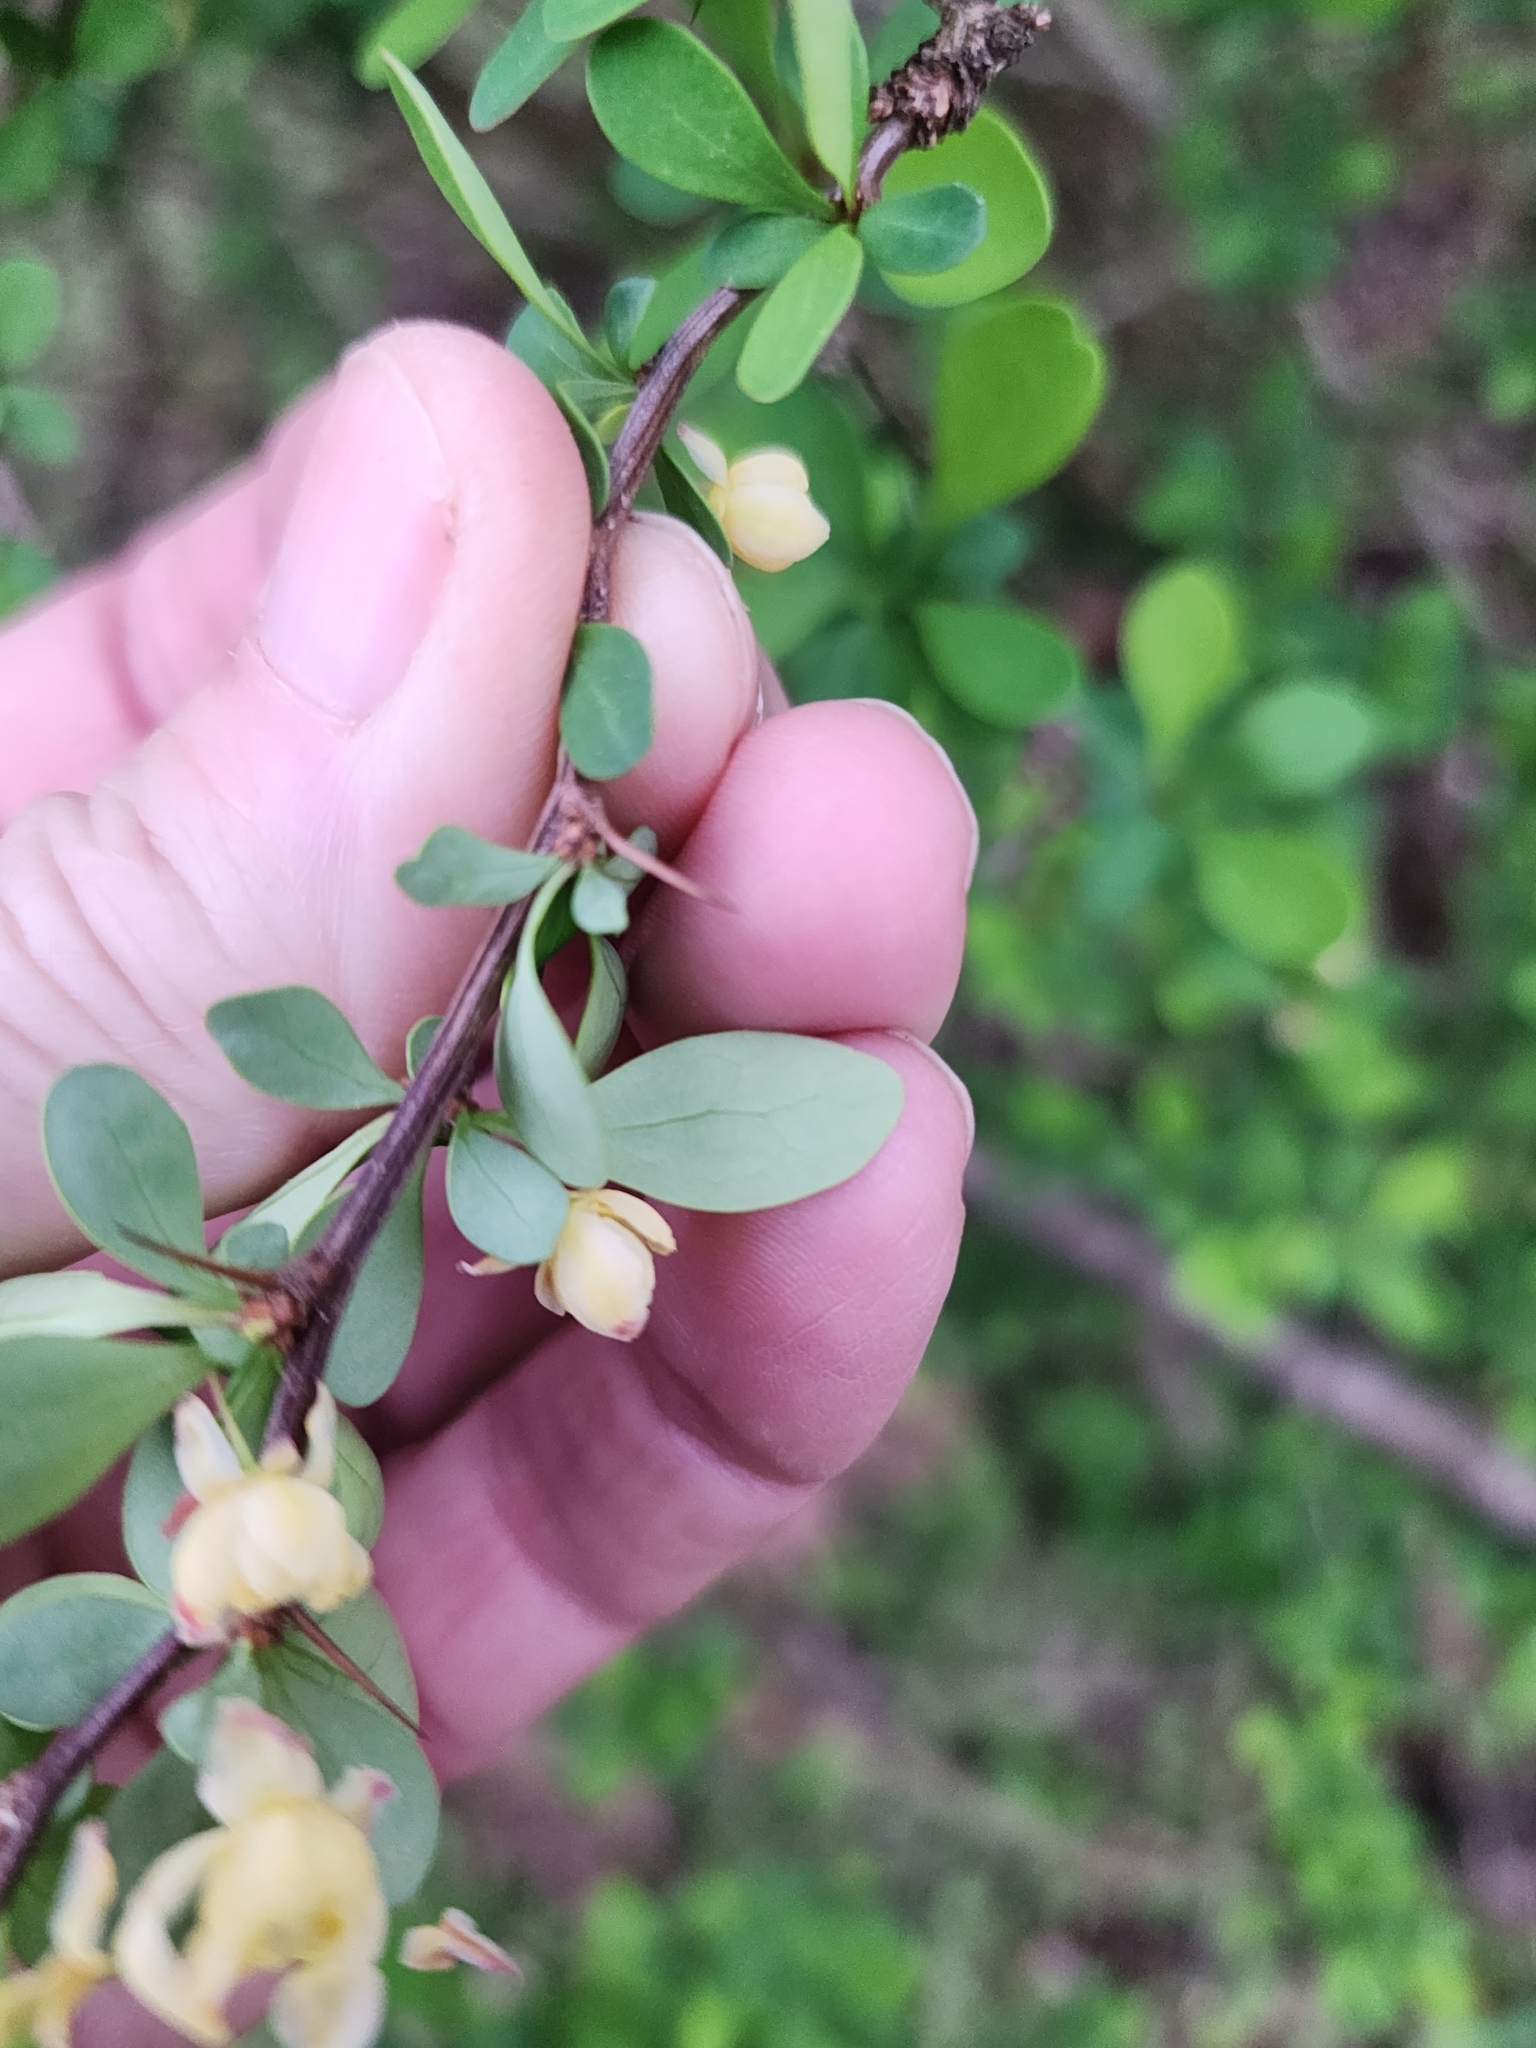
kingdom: Plantae
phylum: Tracheophyta
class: Magnoliopsida
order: Ranunculales
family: Berberidaceae
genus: Berberis
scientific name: Berberis thunbergii
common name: Japanese barberry
